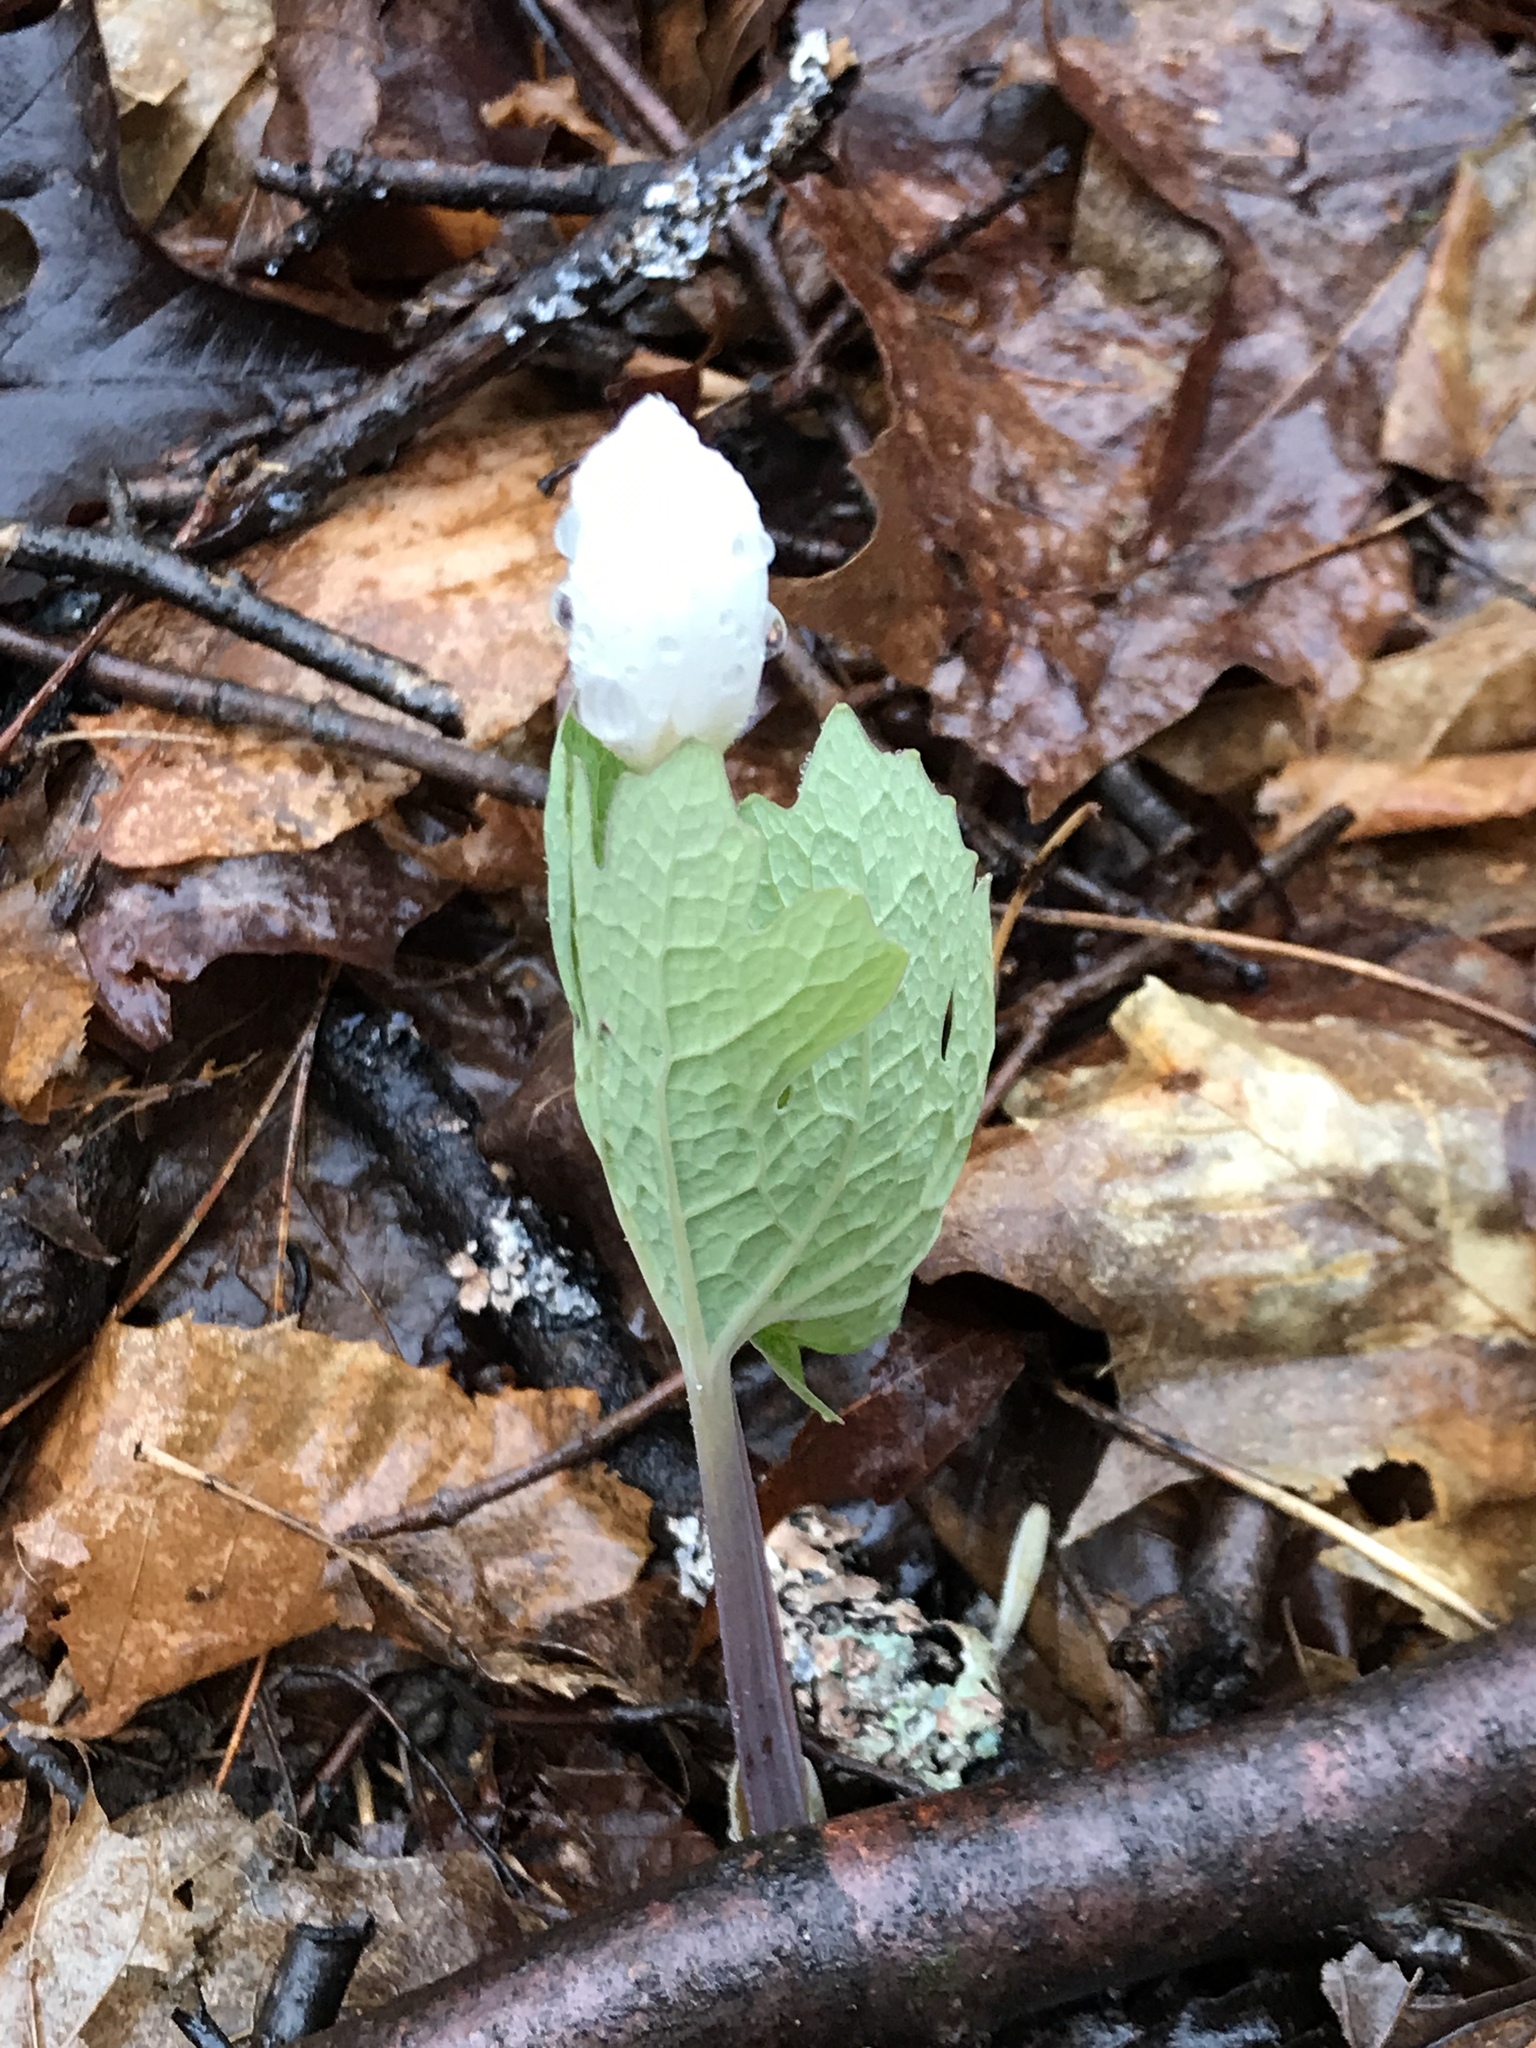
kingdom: Plantae
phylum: Tracheophyta
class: Magnoliopsida
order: Ranunculales
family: Papaveraceae
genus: Sanguinaria
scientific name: Sanguinaria canadensis
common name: Bloodroot
